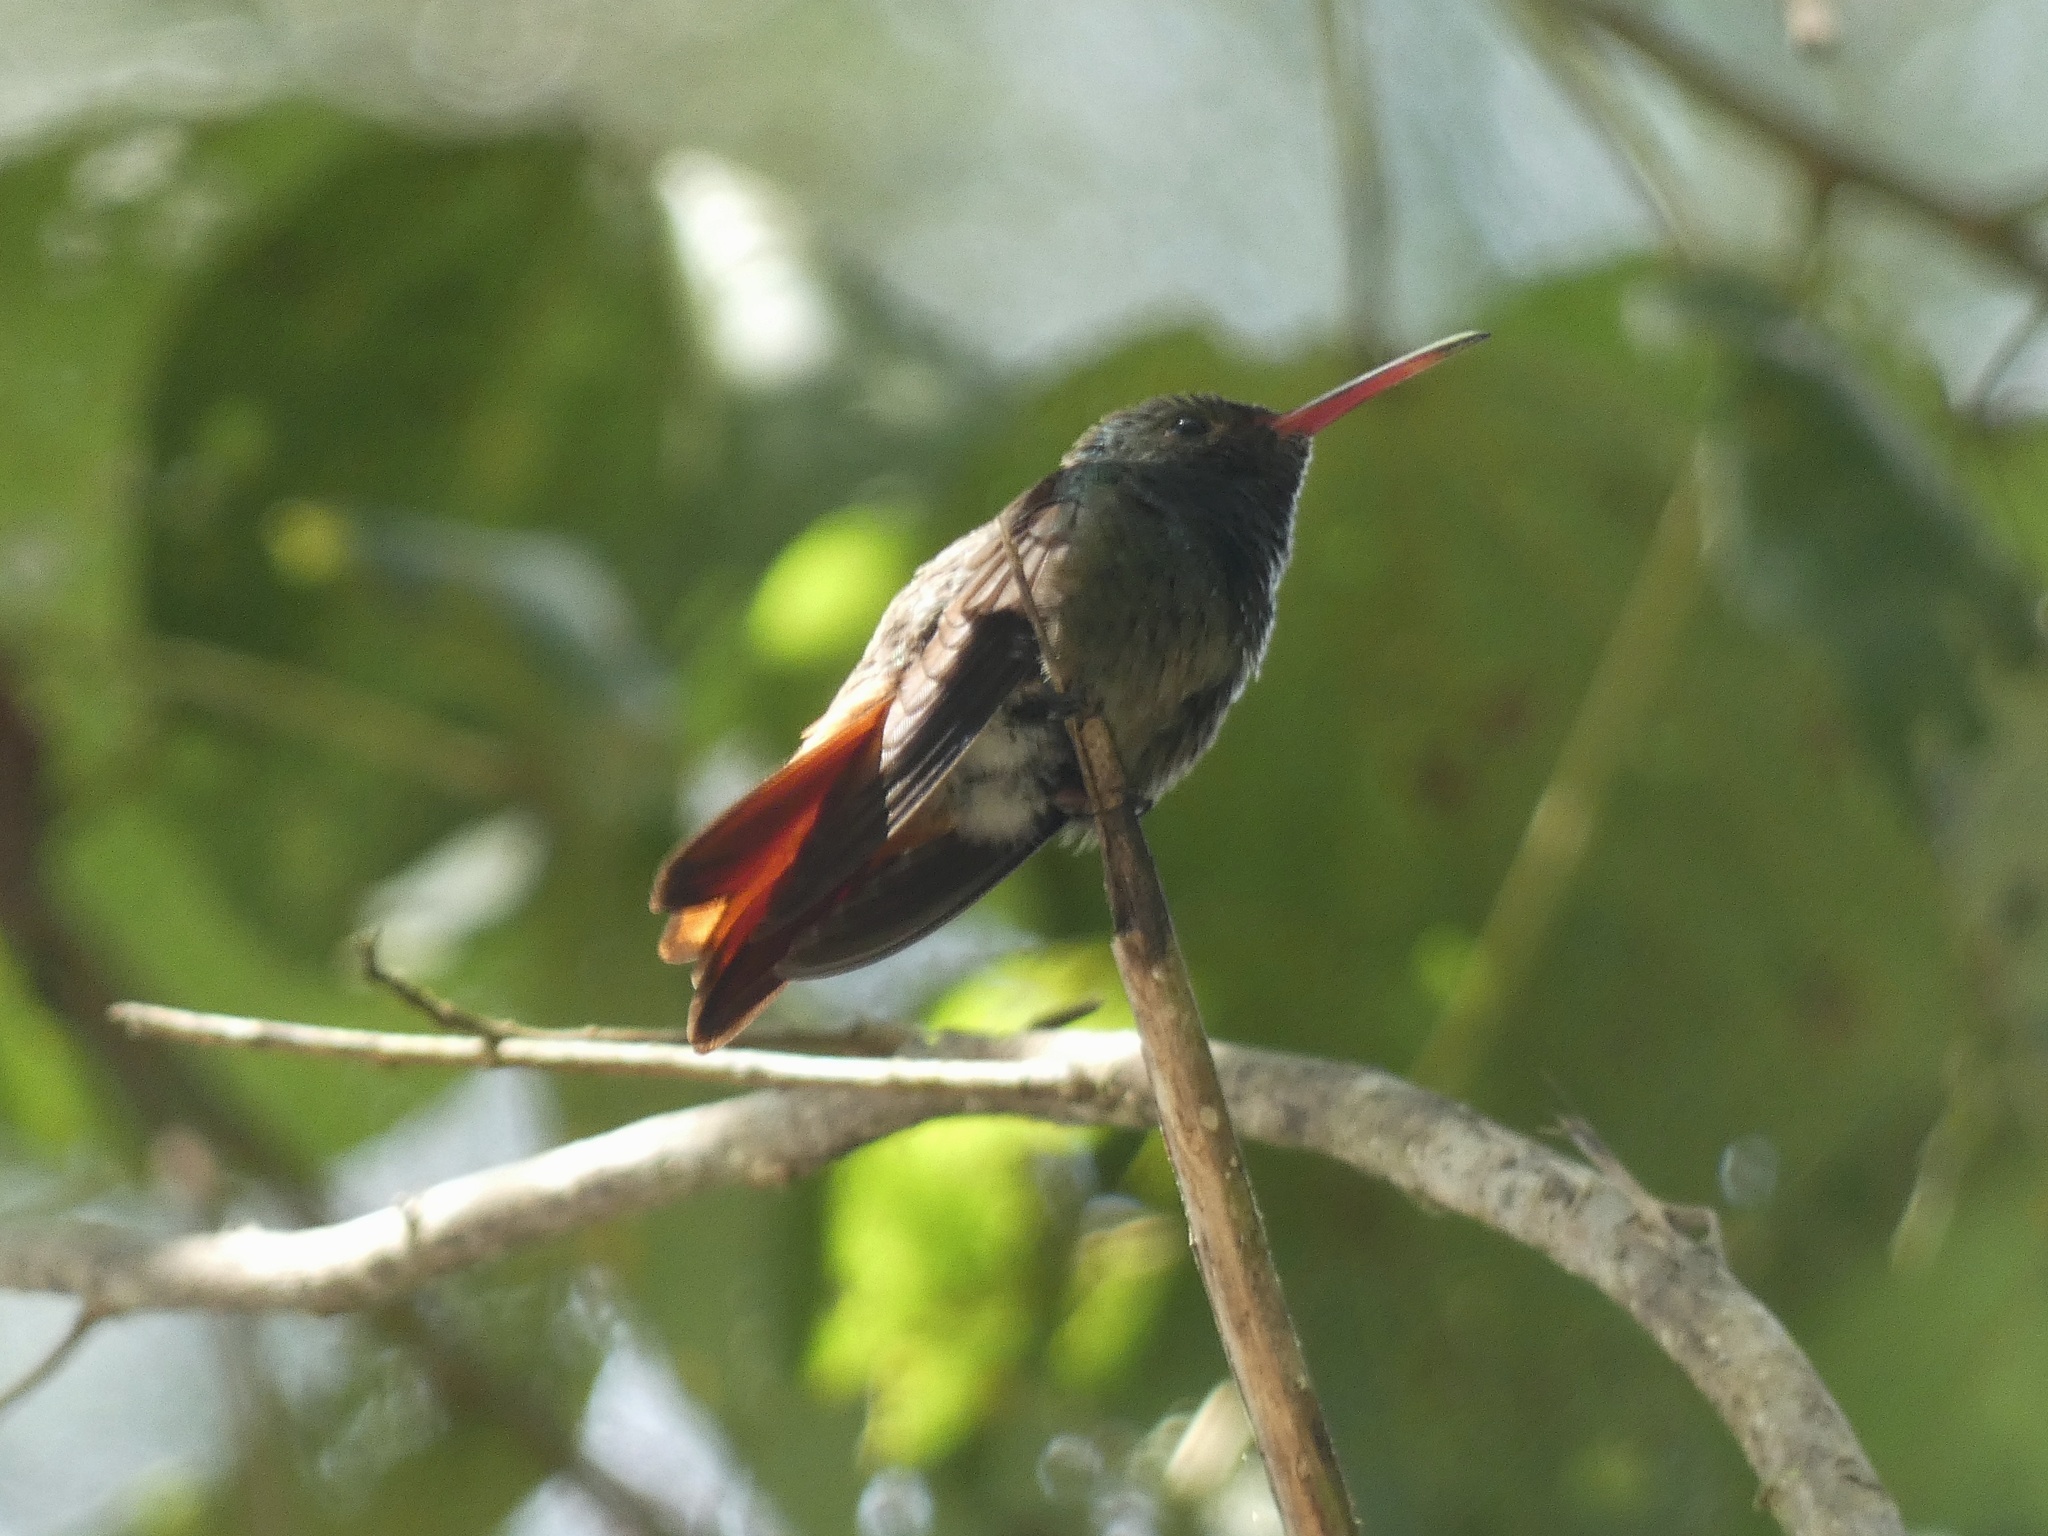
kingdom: Animalia
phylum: Chordata
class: Aves
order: Apodiformes
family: Trochilidae
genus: Amazilia
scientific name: Amazilia tzacatl
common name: Rufous-tailed hummingbird
